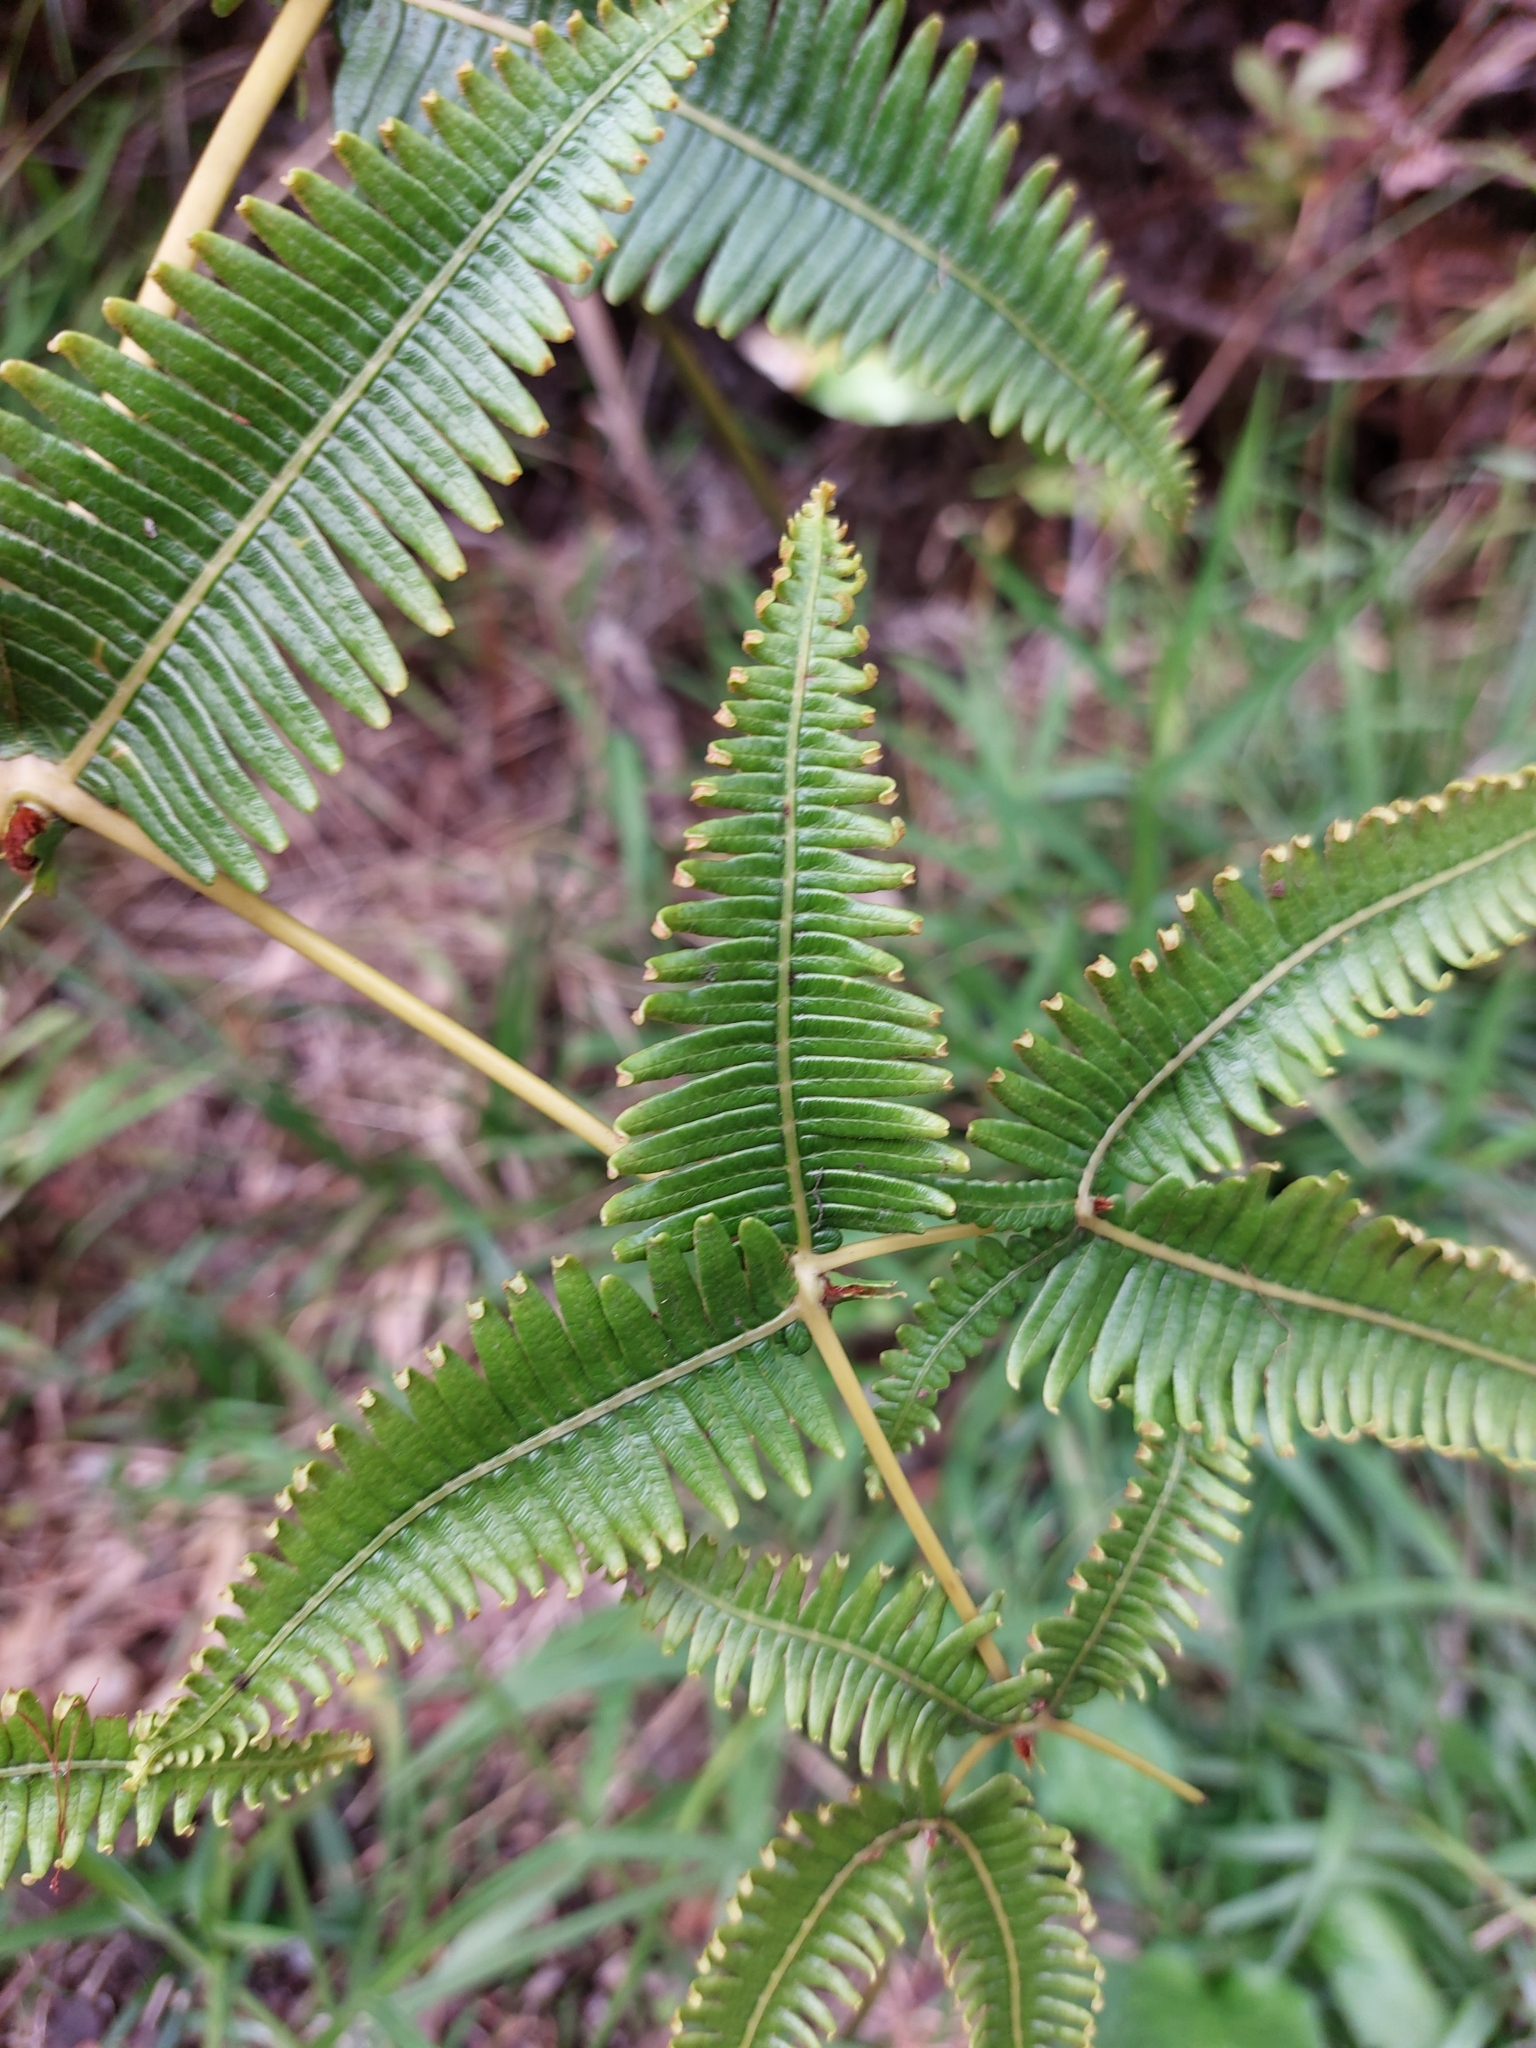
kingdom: Plantae
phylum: Tracheophyta
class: Polypodiopsida
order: Gleicheniales
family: Gleicheniaceae
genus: Dicranopteris
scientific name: Dicranopteris linearis
